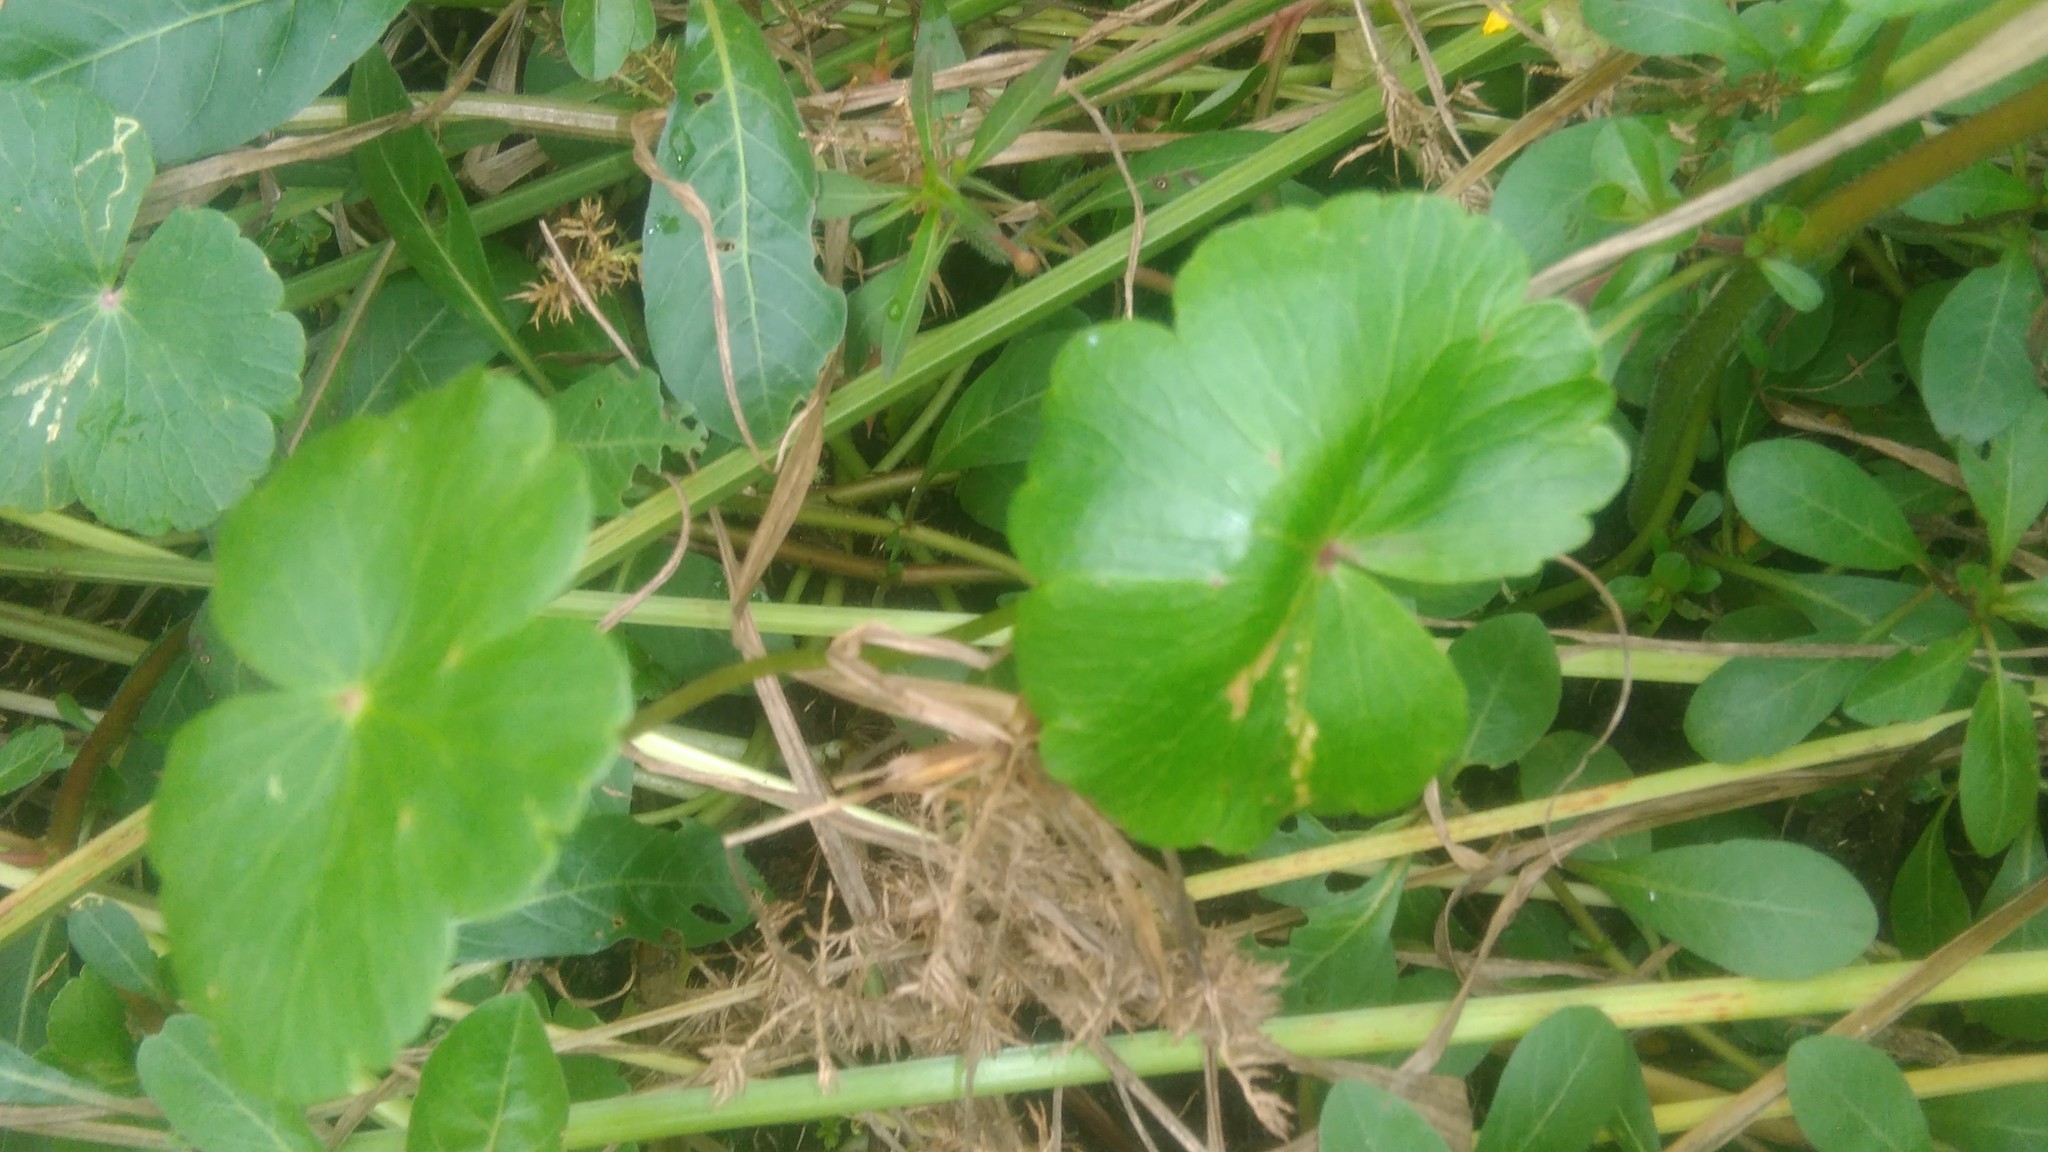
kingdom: Plantae
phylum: Tracheophyta
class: Magnoliopsida
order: Apiales
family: Araliaceae
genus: Hydrocotyle
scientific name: Hydrocotyle ranunculoides
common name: Floating pennywort
